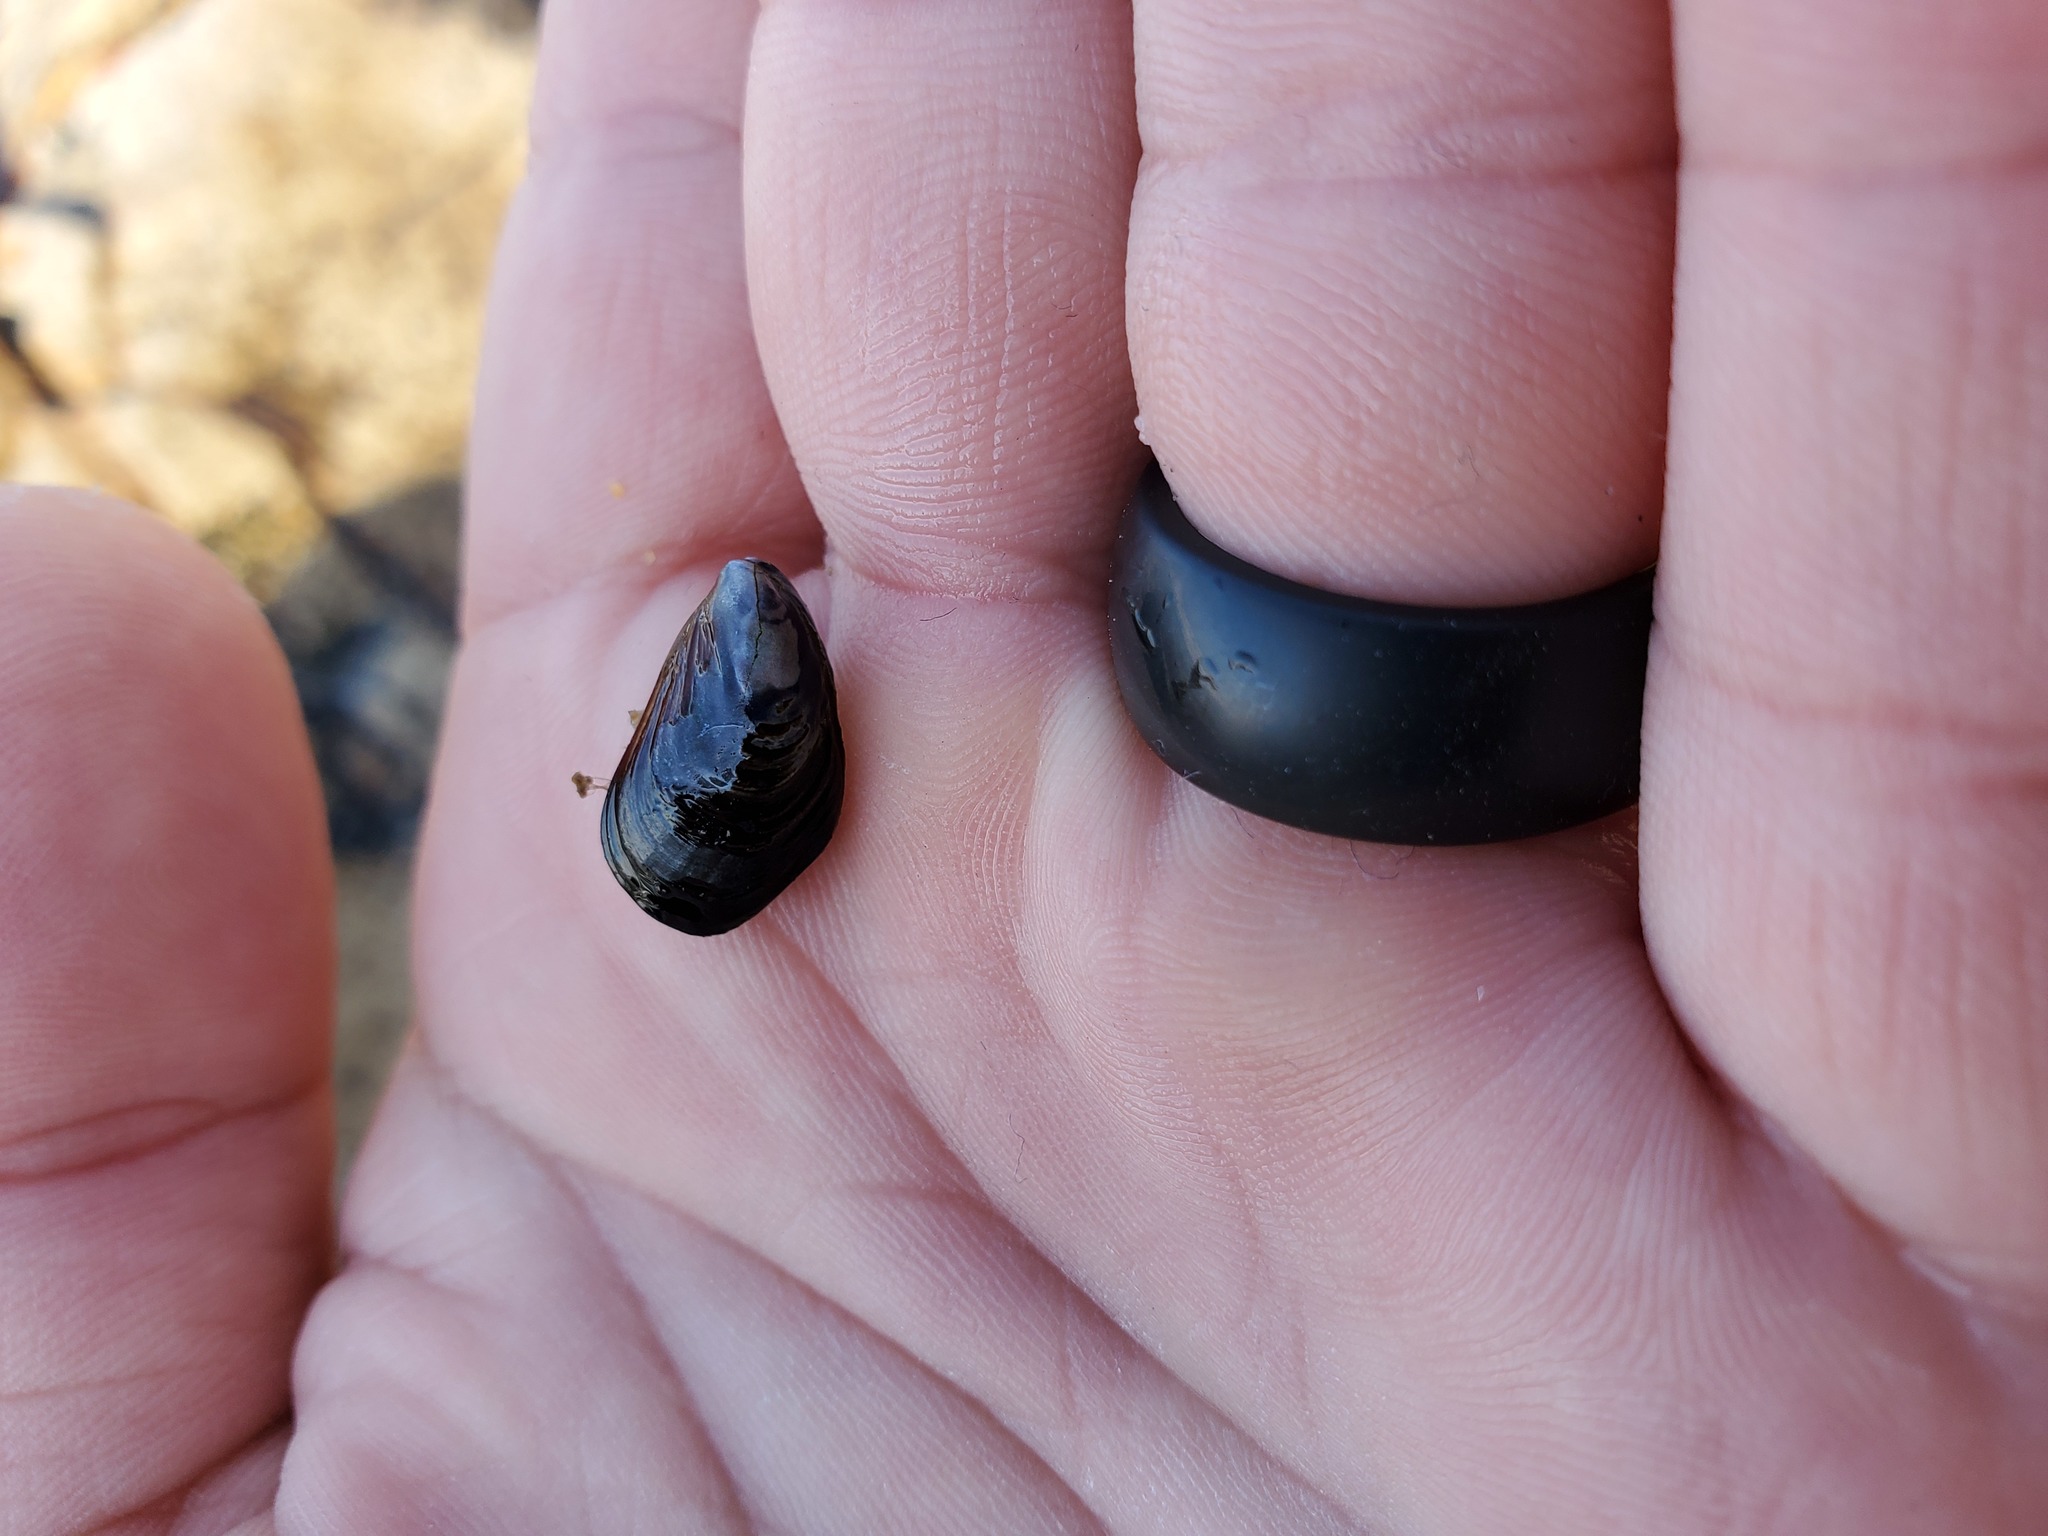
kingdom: Animalia
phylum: Mollusca
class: Bivalvia
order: Mytilida
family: Mytilidae
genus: Mytilus
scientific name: Mytilus californianus
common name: California mussel
